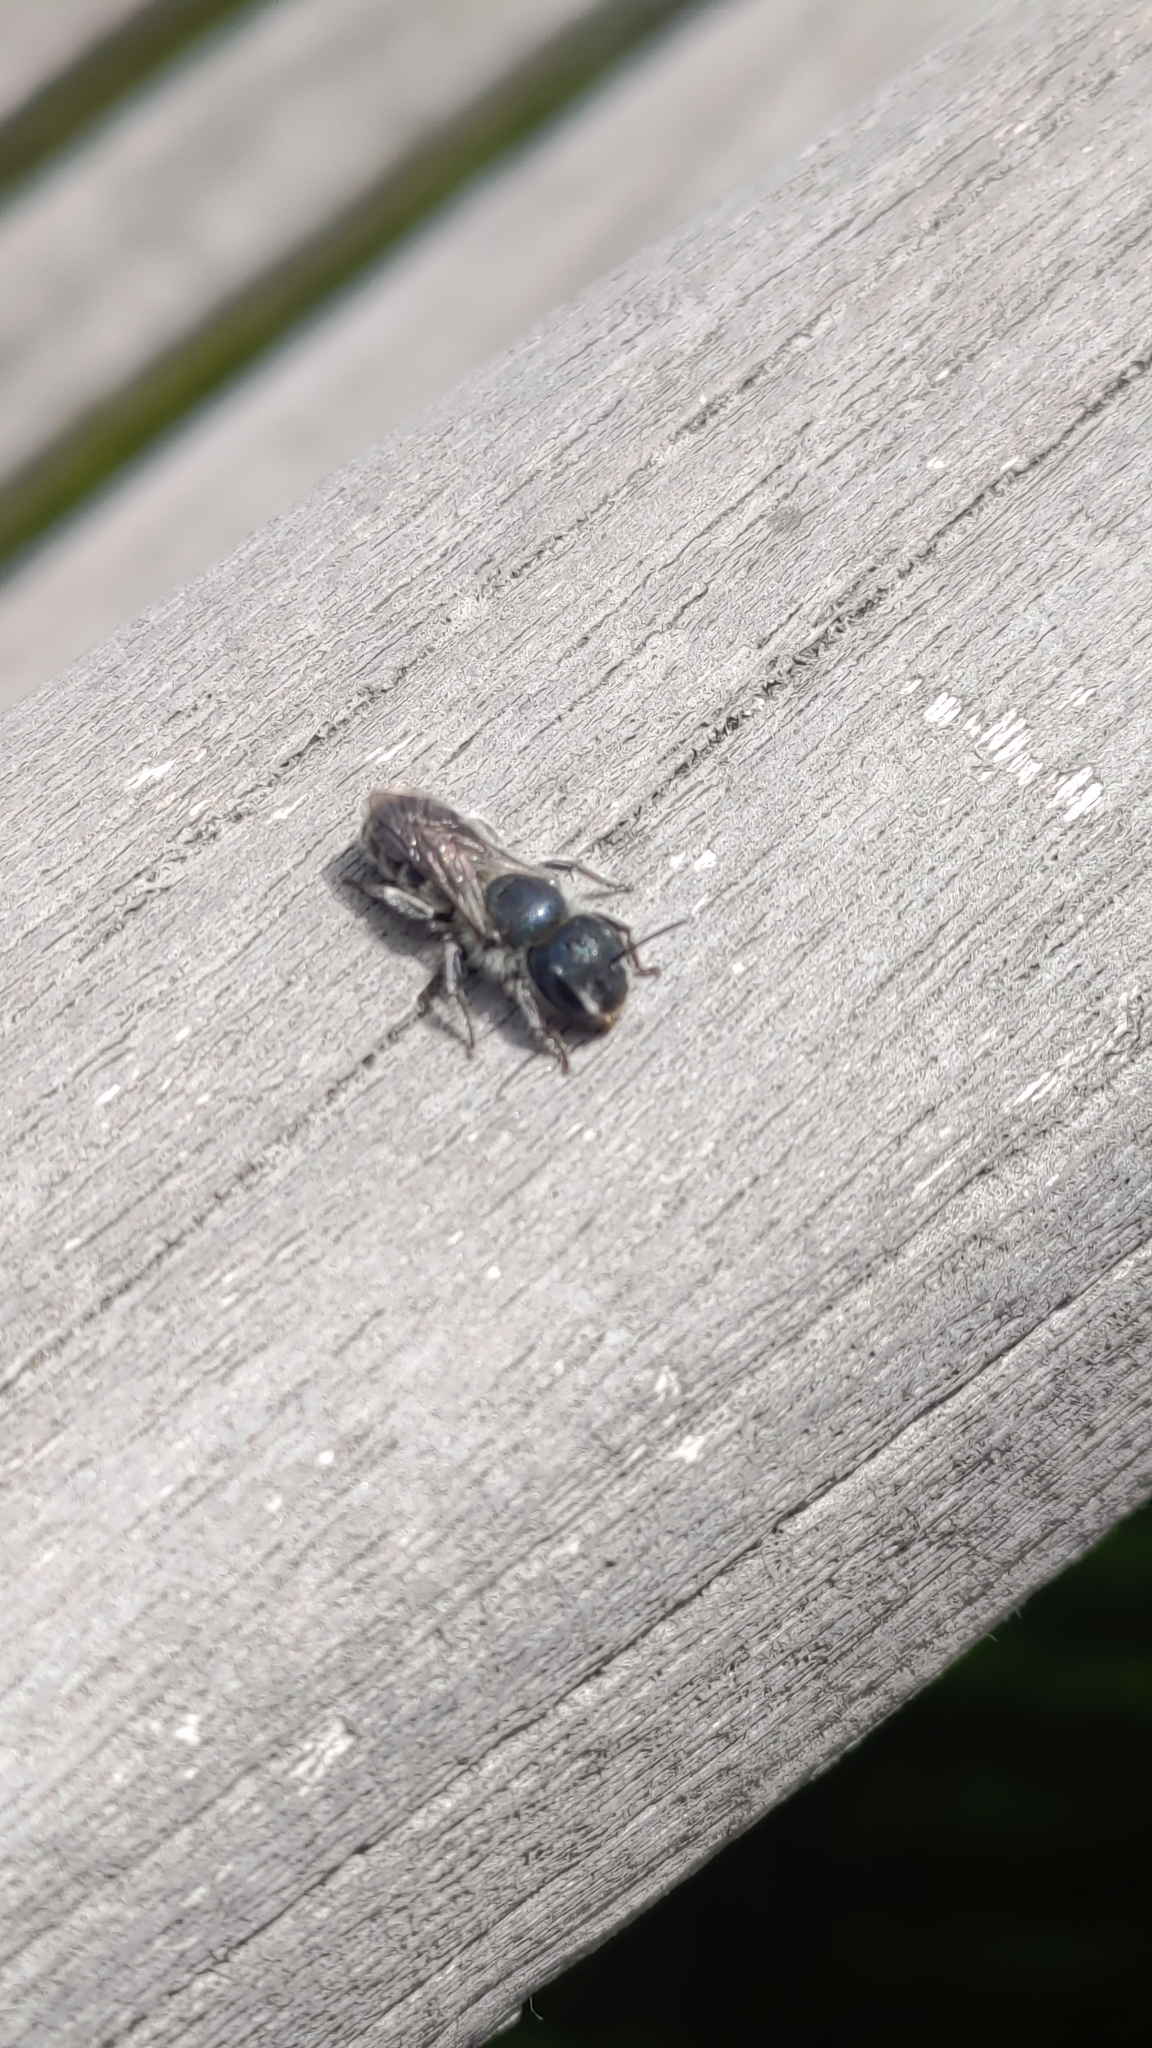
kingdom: Animalia
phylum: Arthropoda
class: Insecta
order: Hymenoptera
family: Megachilidae
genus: Osmia
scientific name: Osmia caerulescens
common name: Blue mason bee
